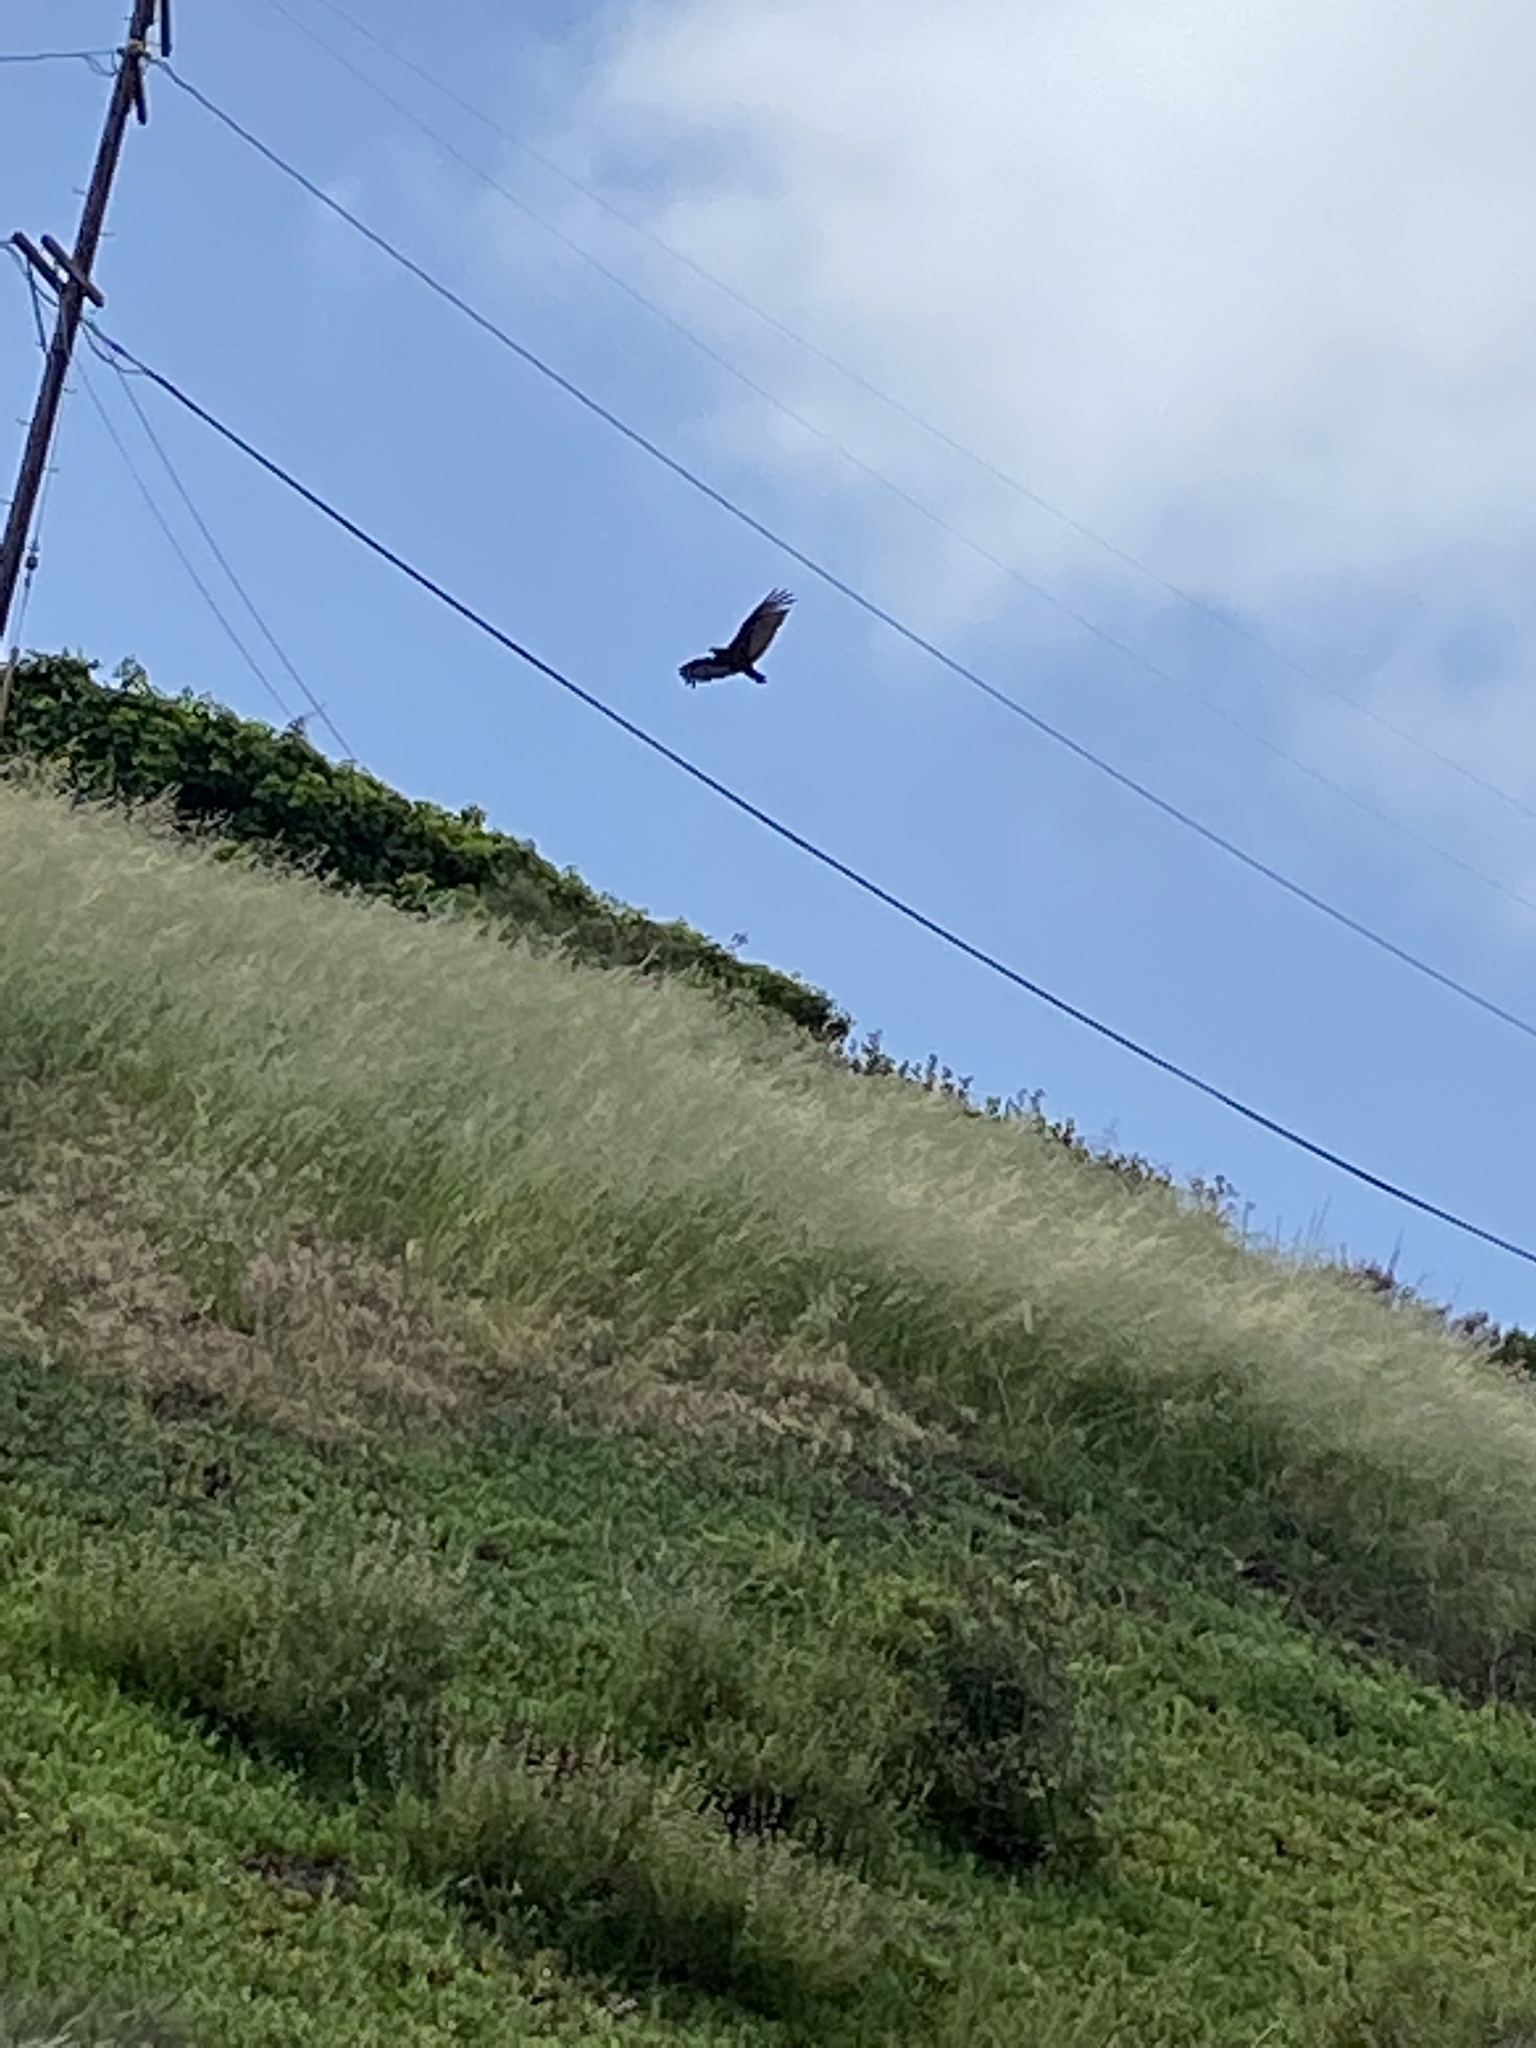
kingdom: Animalia
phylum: Chordata
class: Aves
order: Accipitriformes
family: Cathartidae
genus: Cathartes
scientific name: Cathartes aura
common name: Turkey vulture
